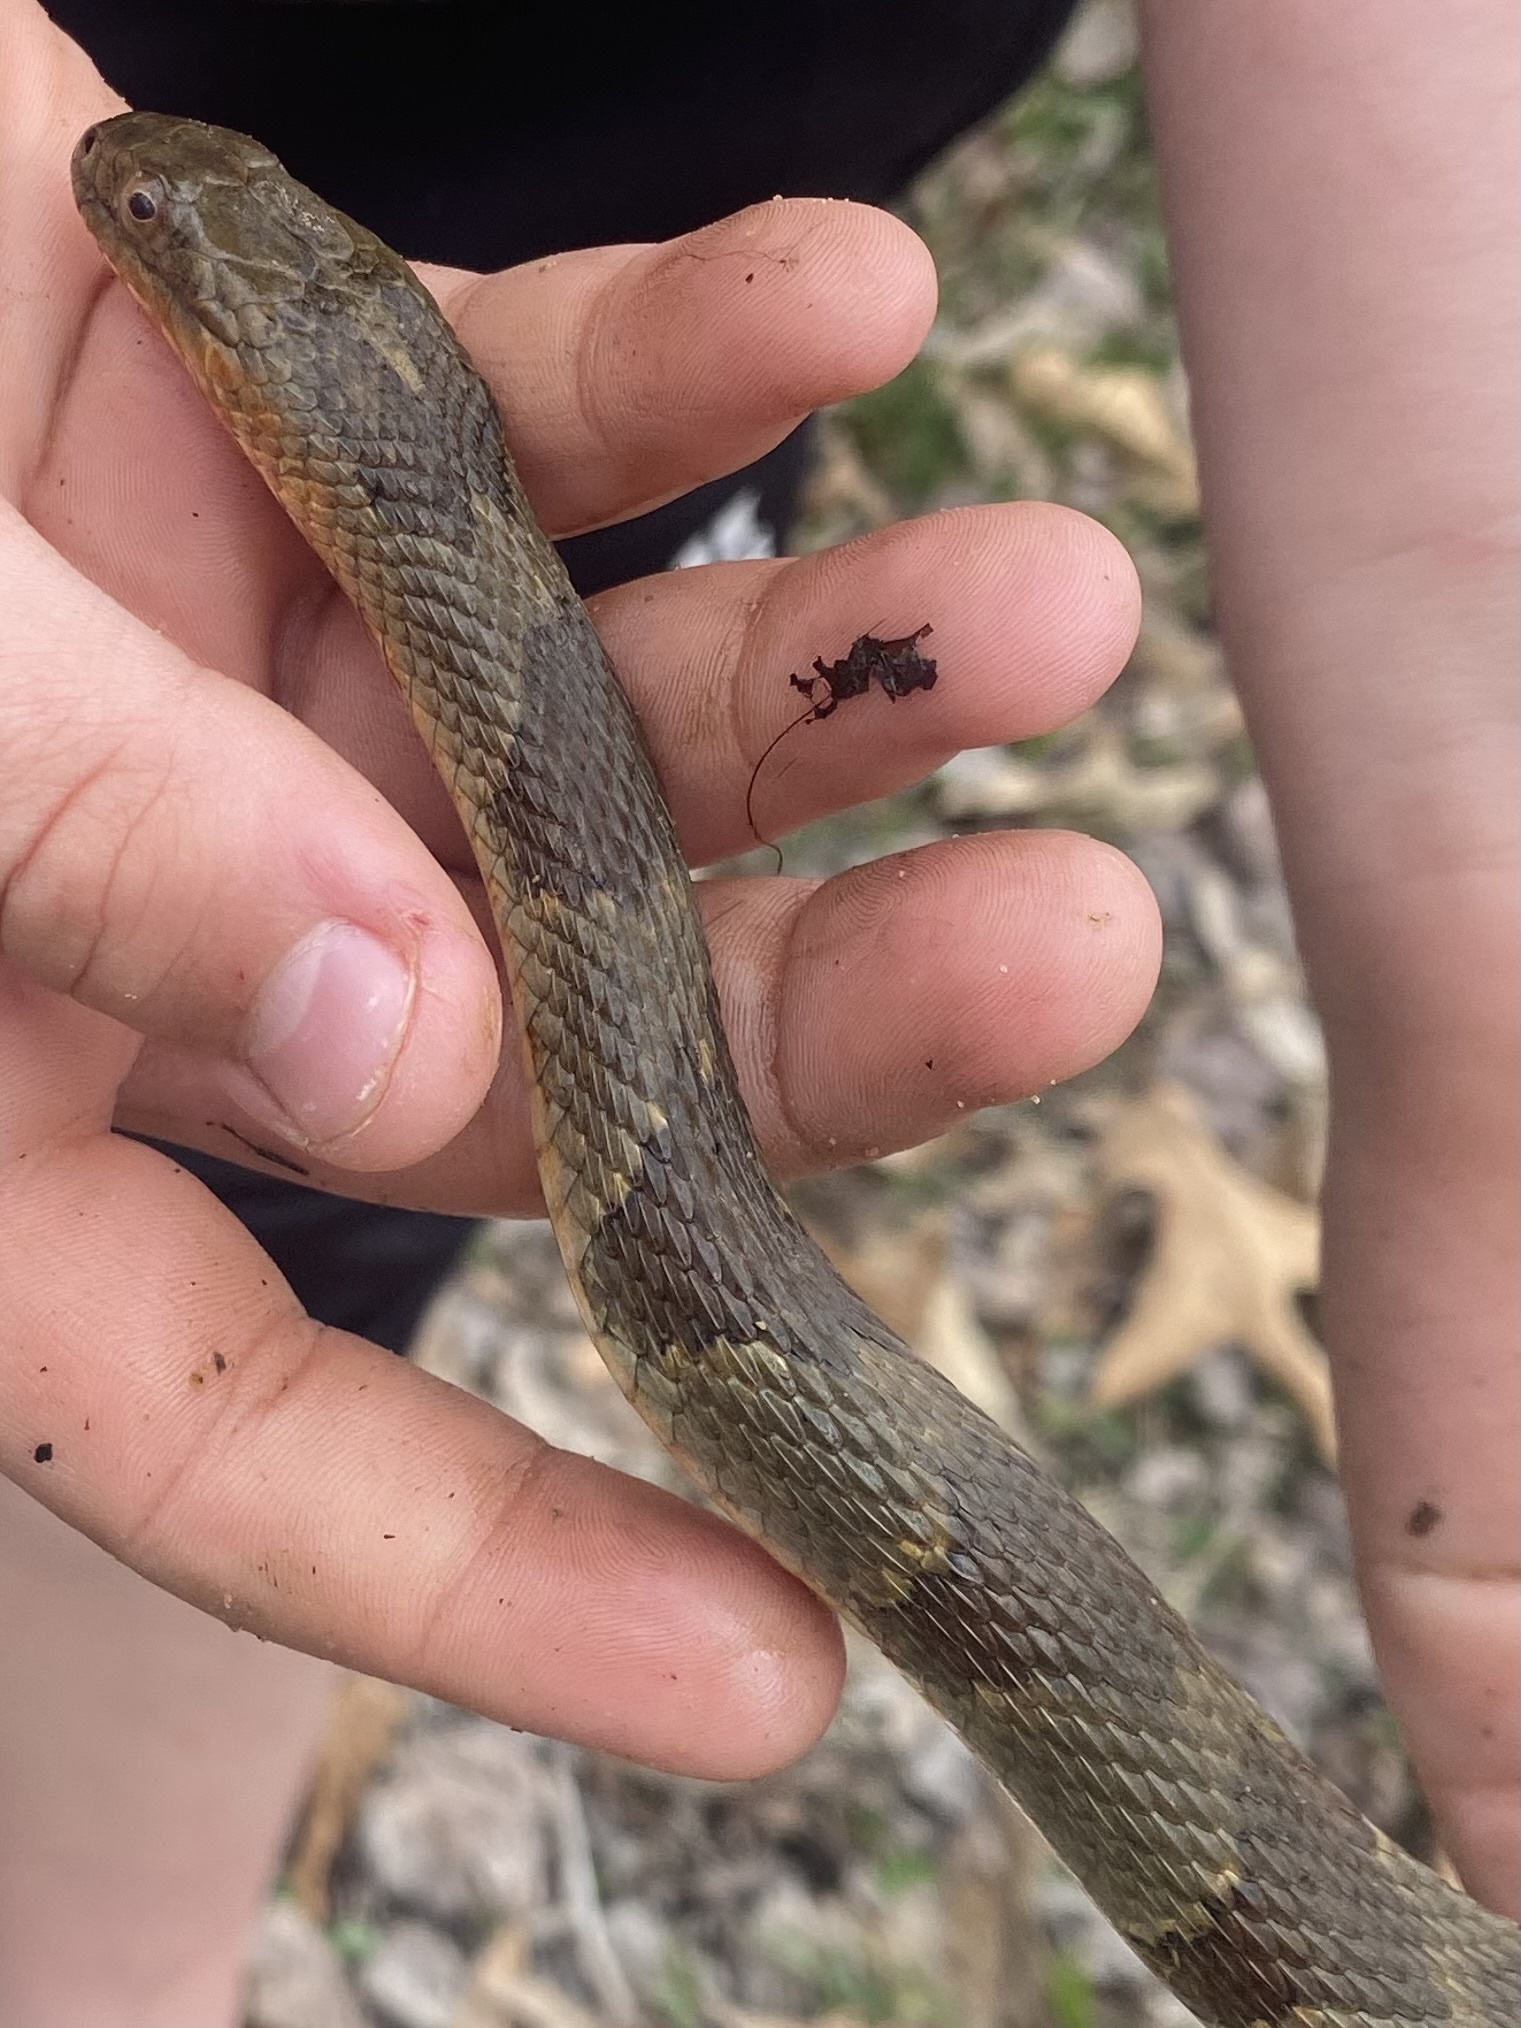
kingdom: Animalia
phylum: Chordata
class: Squamata
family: Colubridae
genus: Nerodia
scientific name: Nerodia sipedon
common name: Northern water snake
